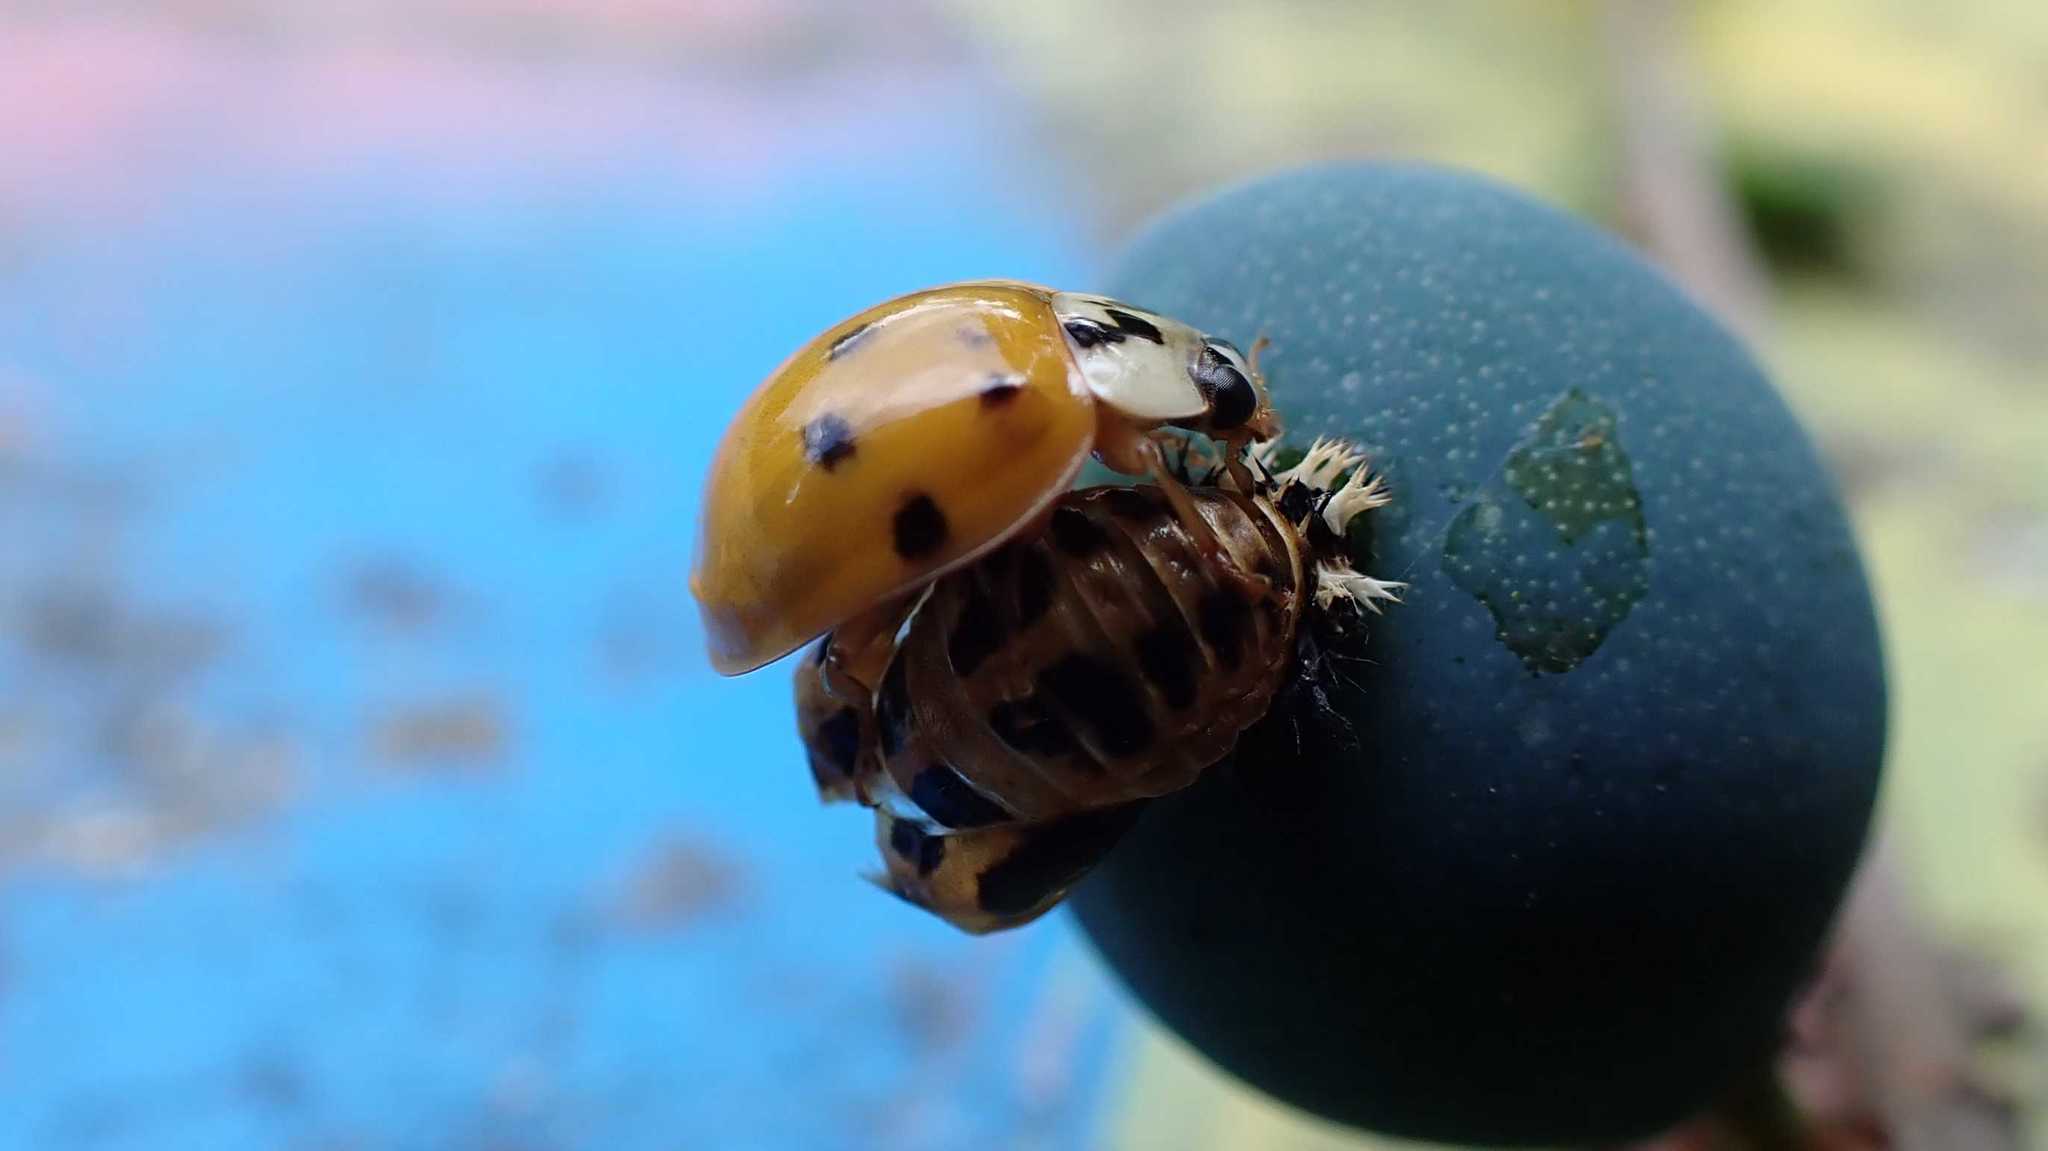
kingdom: Animalia
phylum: Arthropoda
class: Insecta
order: Coleoptera
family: Coccinellidae
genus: Harmonia
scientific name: Harmonia axyridis
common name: Harlequin ladybird
